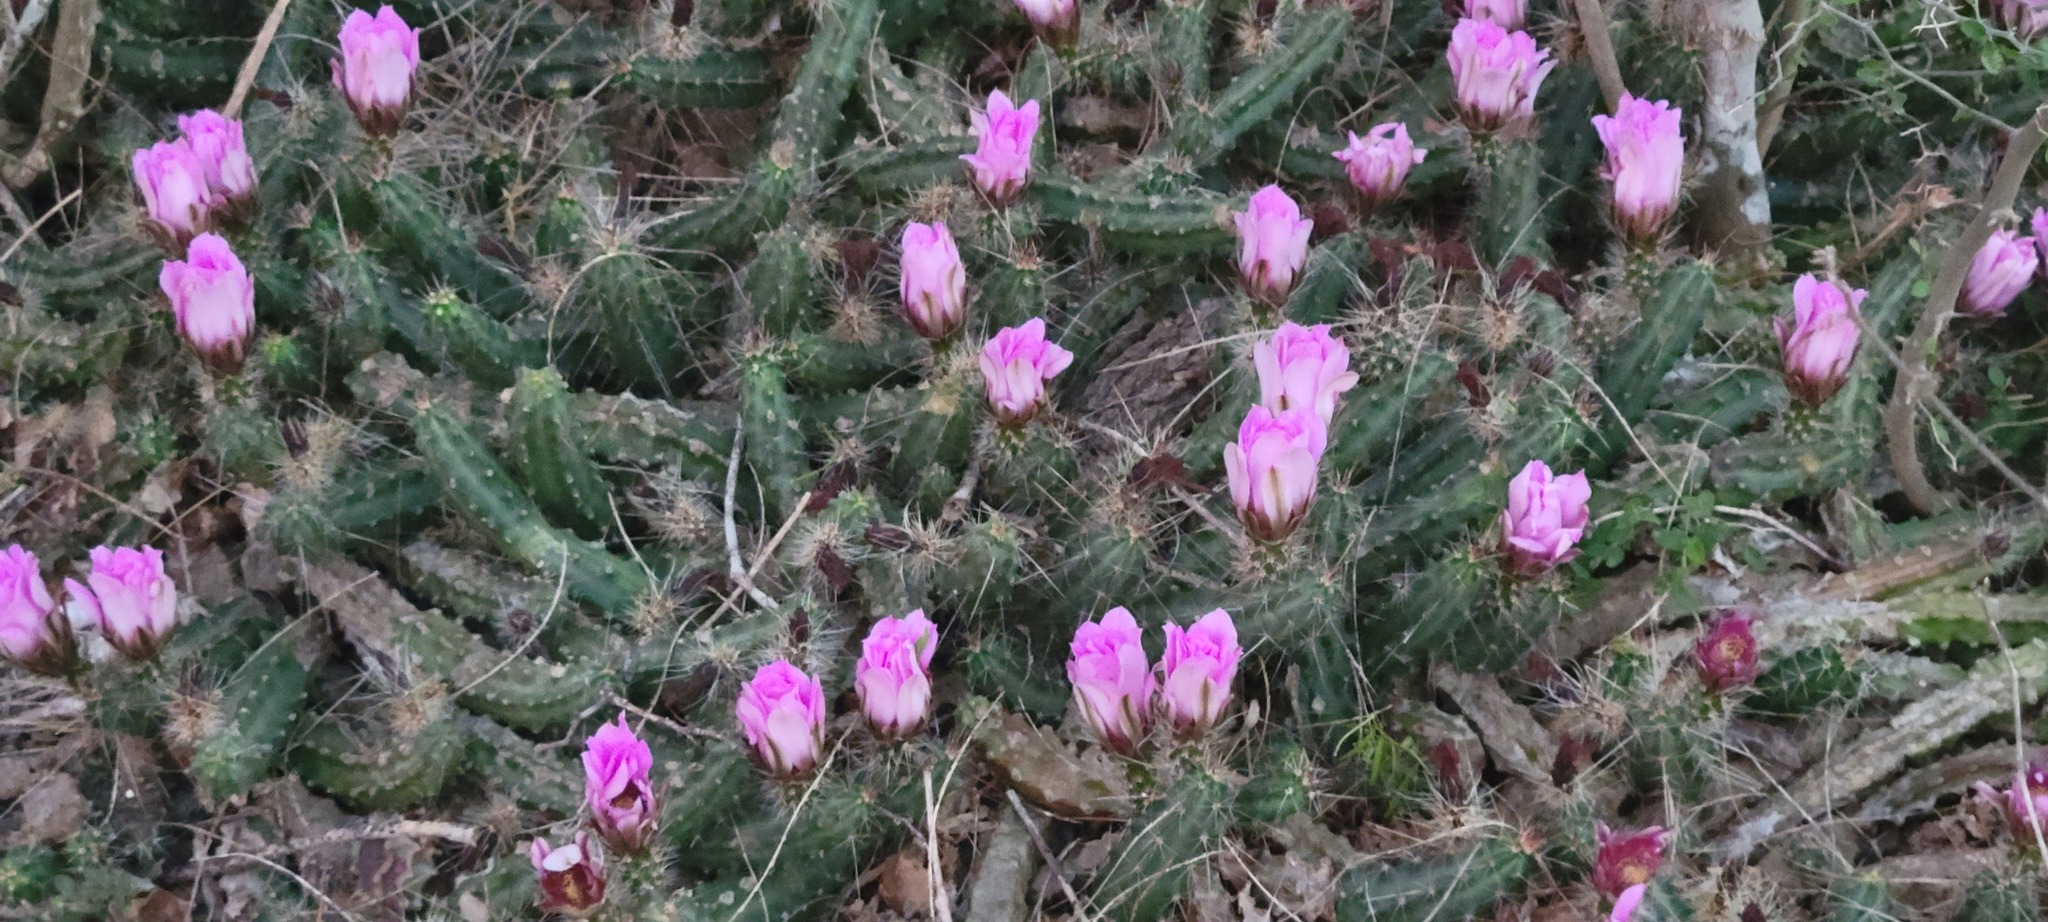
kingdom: Plantae
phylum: Tracheophyta
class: Magnoliopsida
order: Caryophyllales
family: Cactaceae
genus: Echinocereus
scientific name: Echinocereus berlandieri
